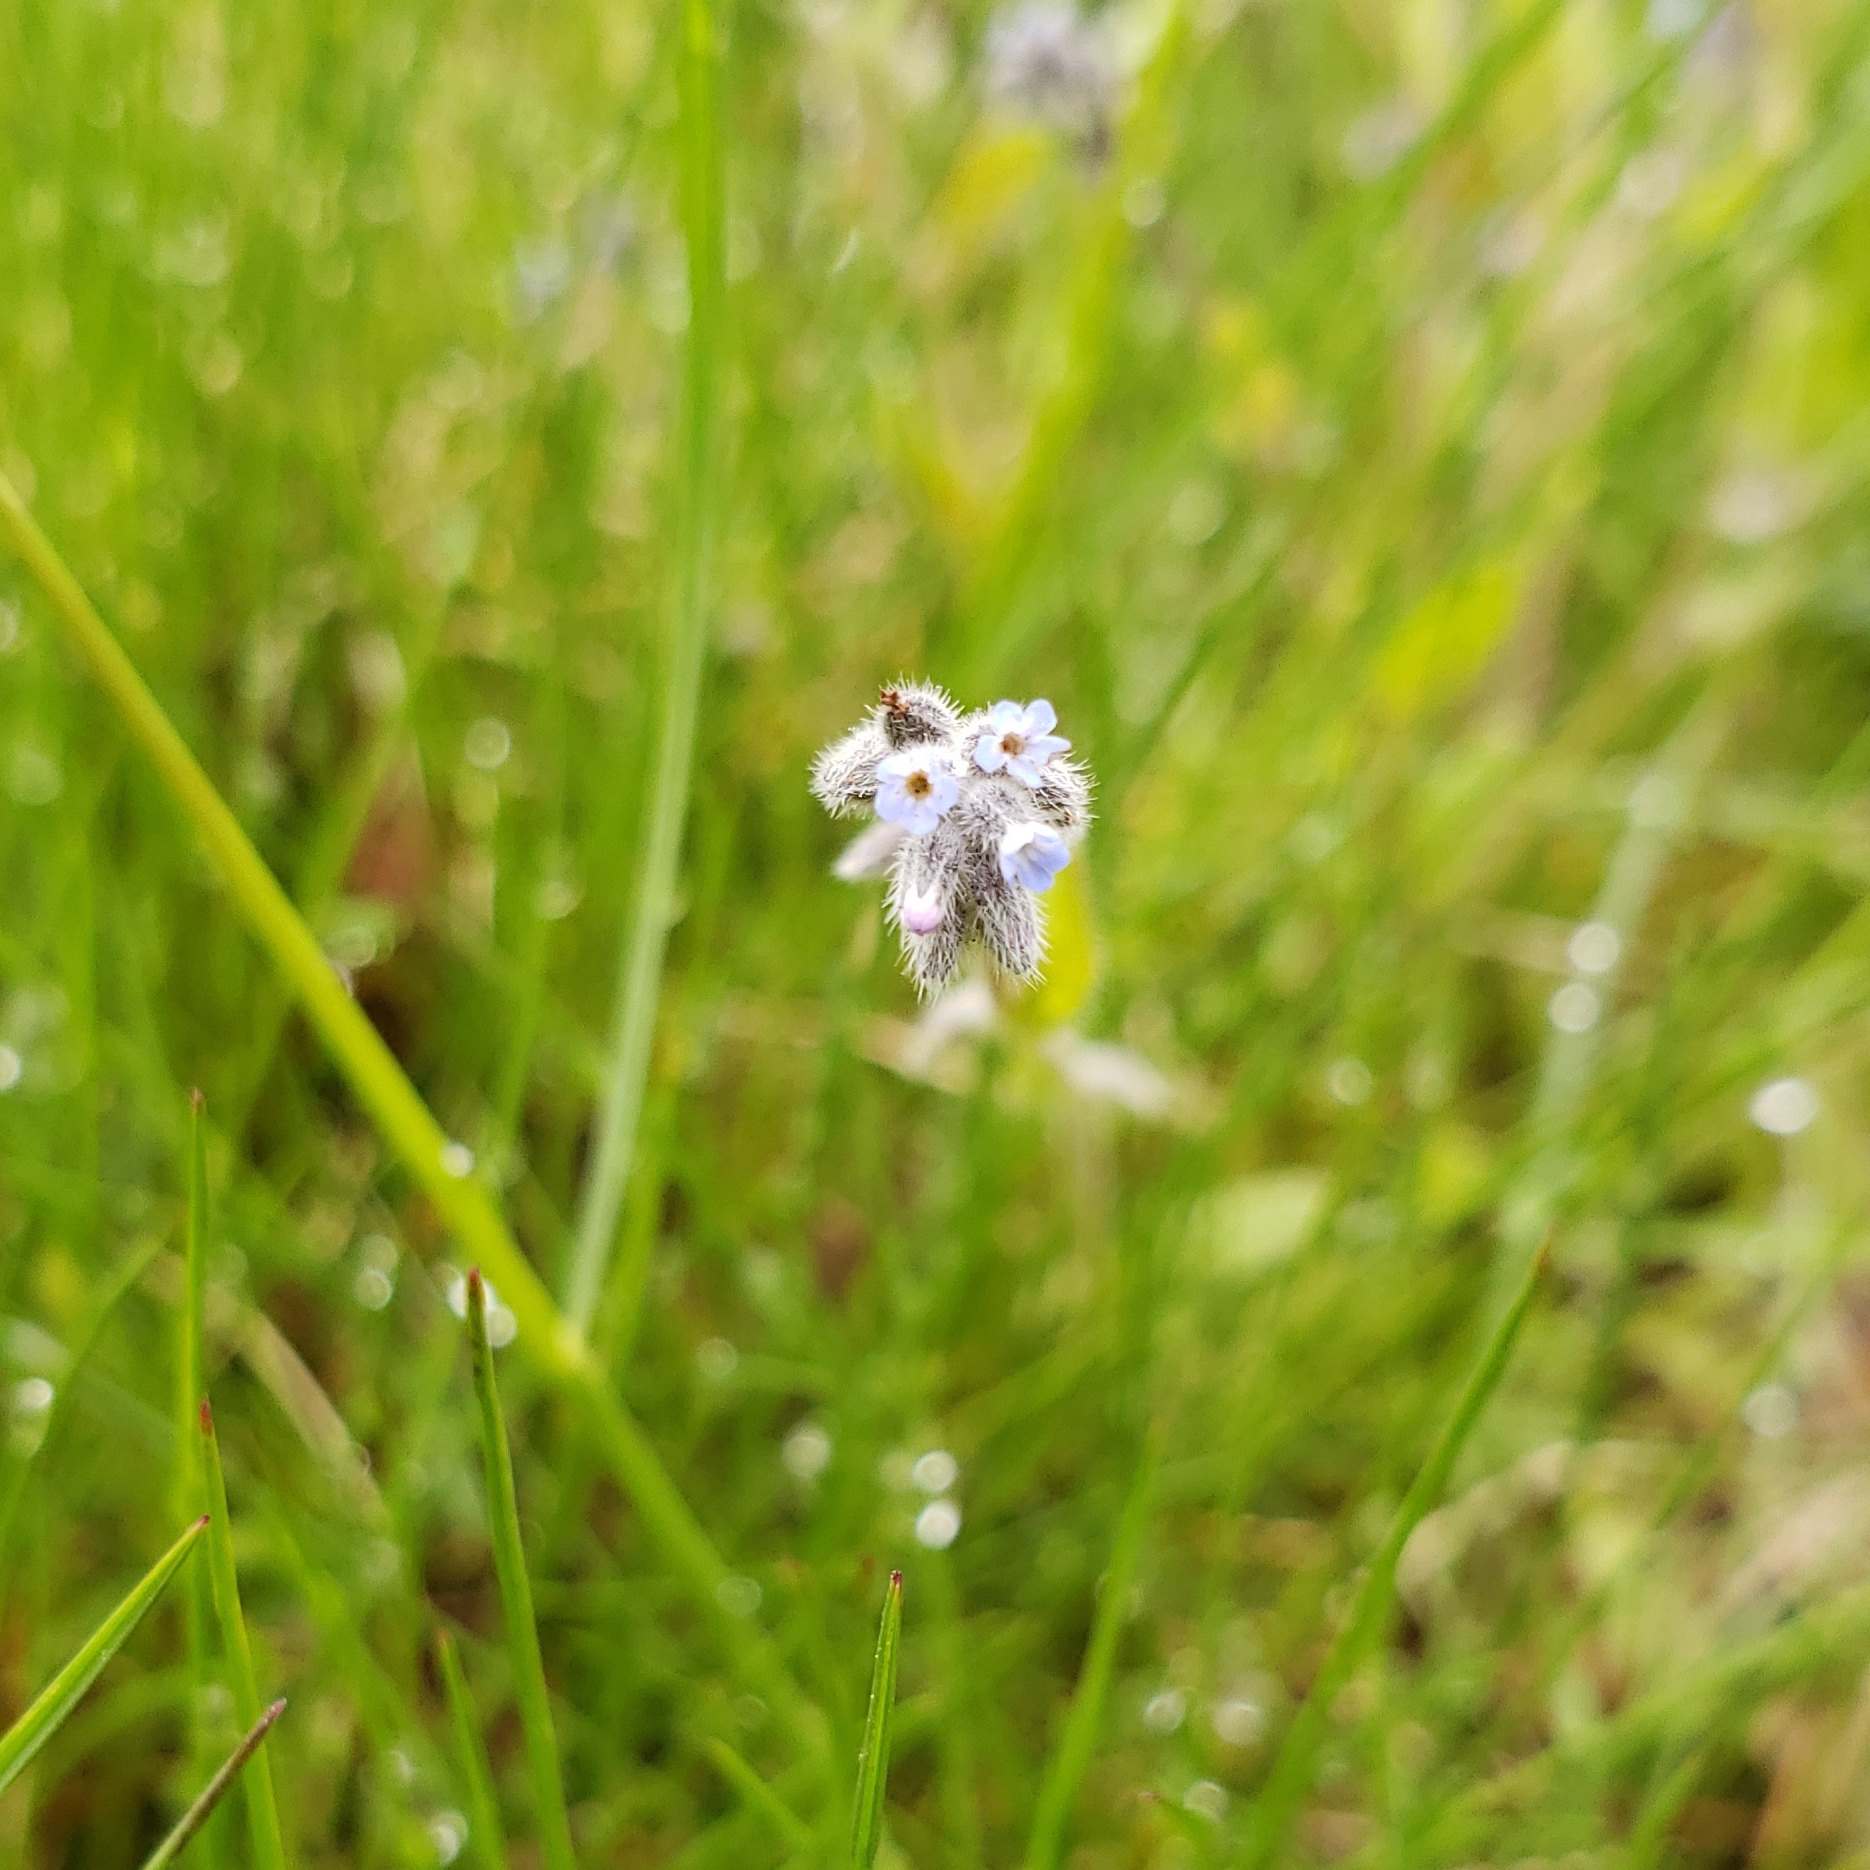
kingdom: Plantae
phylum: Tracheophyta
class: Magnoliopsida
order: Boraginales
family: Boraginaceae
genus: Myosotis
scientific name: Myosotis stricta
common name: Strict forget-me-not
